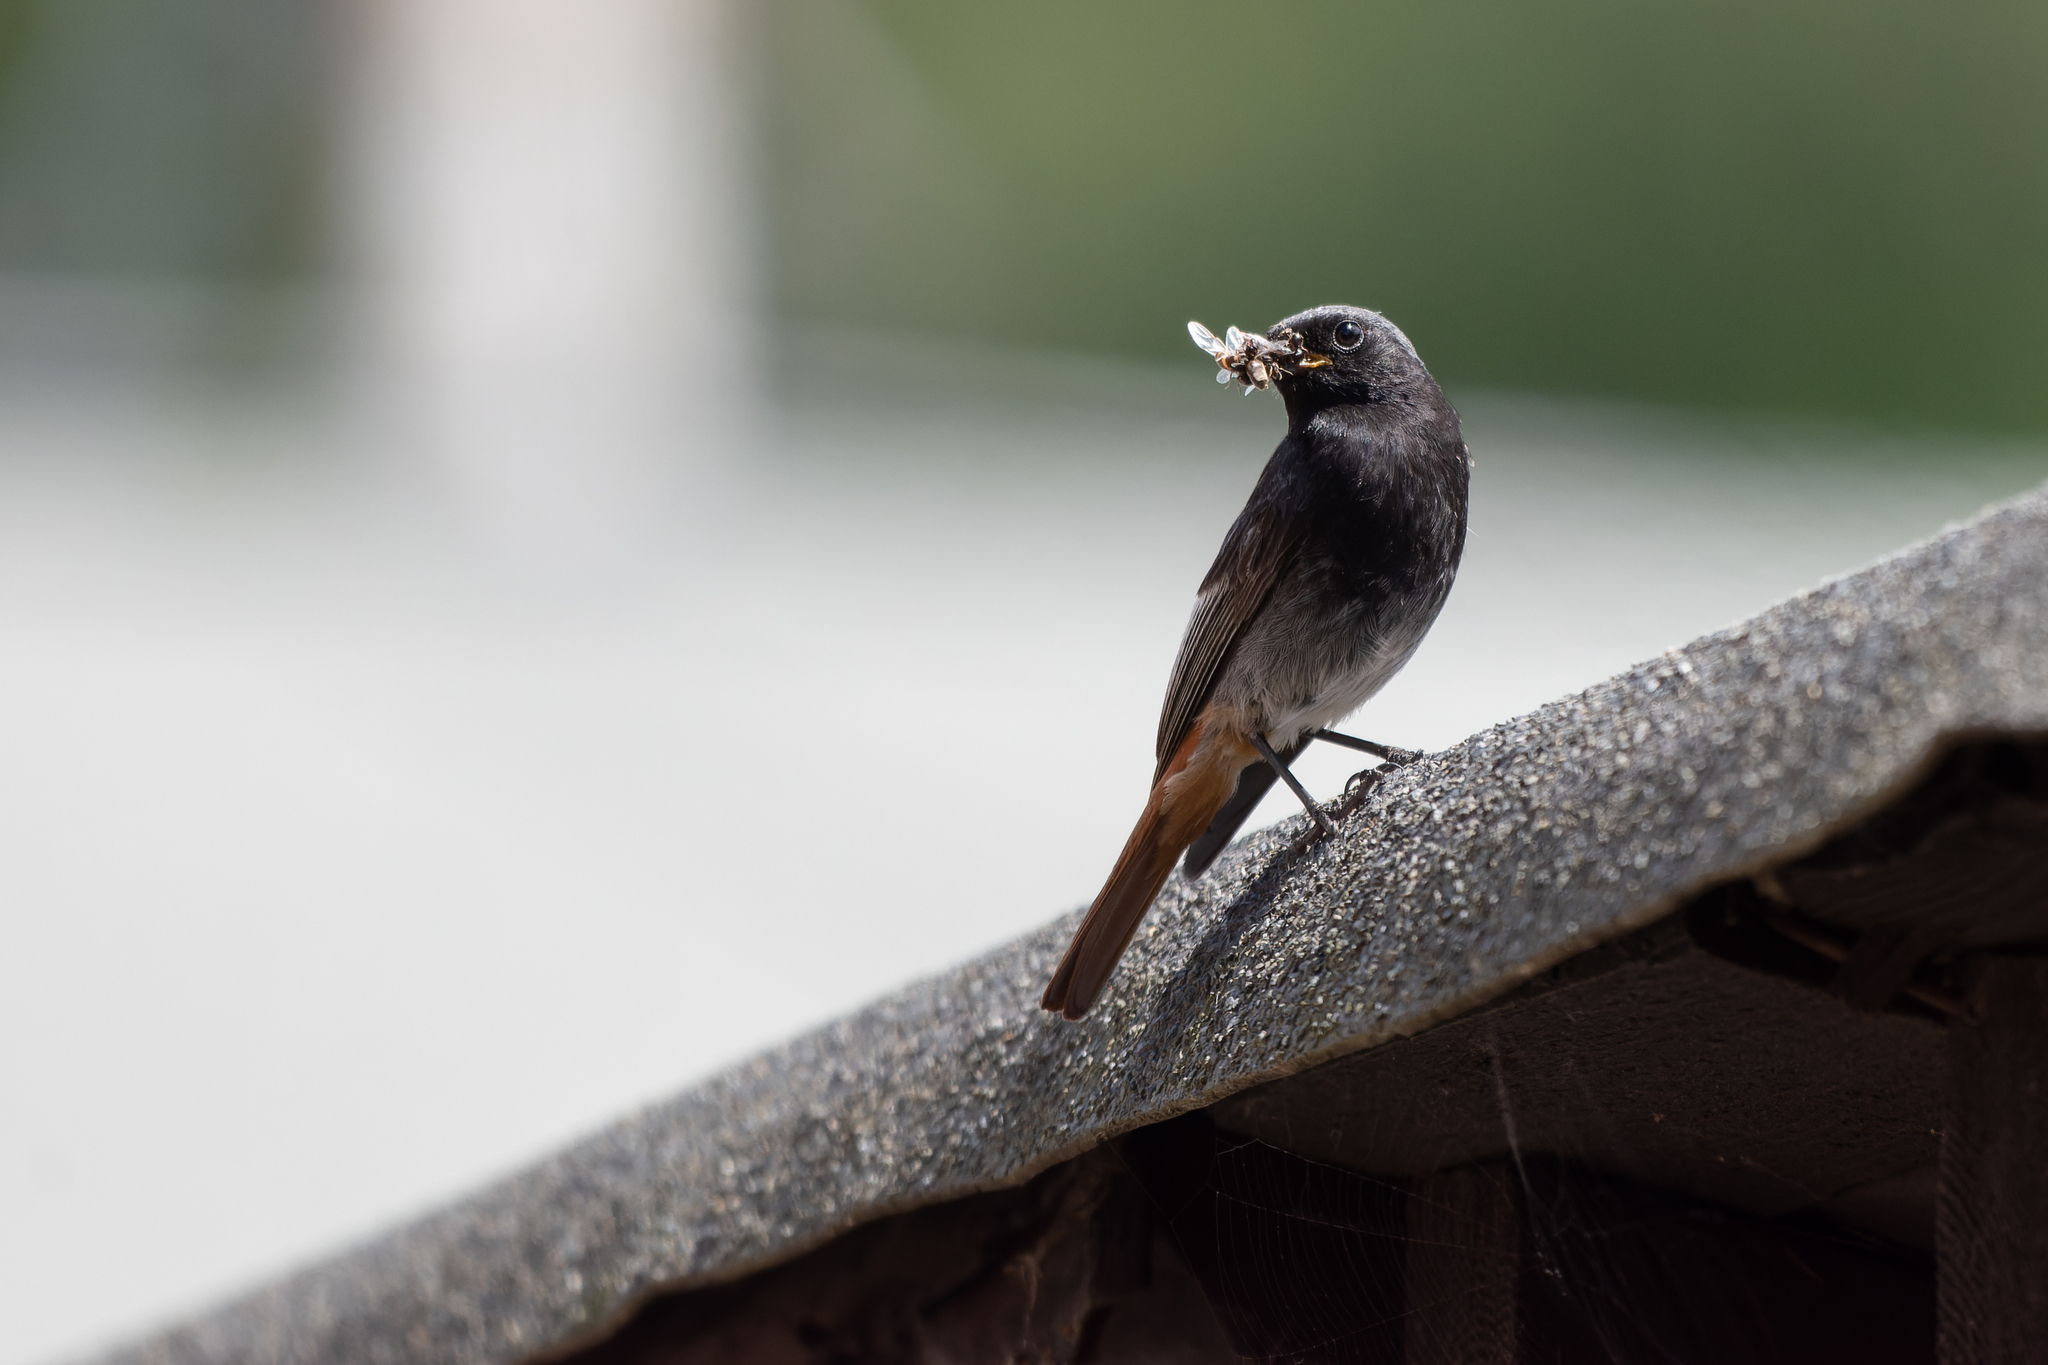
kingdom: Animalia
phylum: Chordata
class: Aves
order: Passeriformes
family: Muscicapidae
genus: Phoenicurus
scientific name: Phoenicurus ochruros
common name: Black redstart
